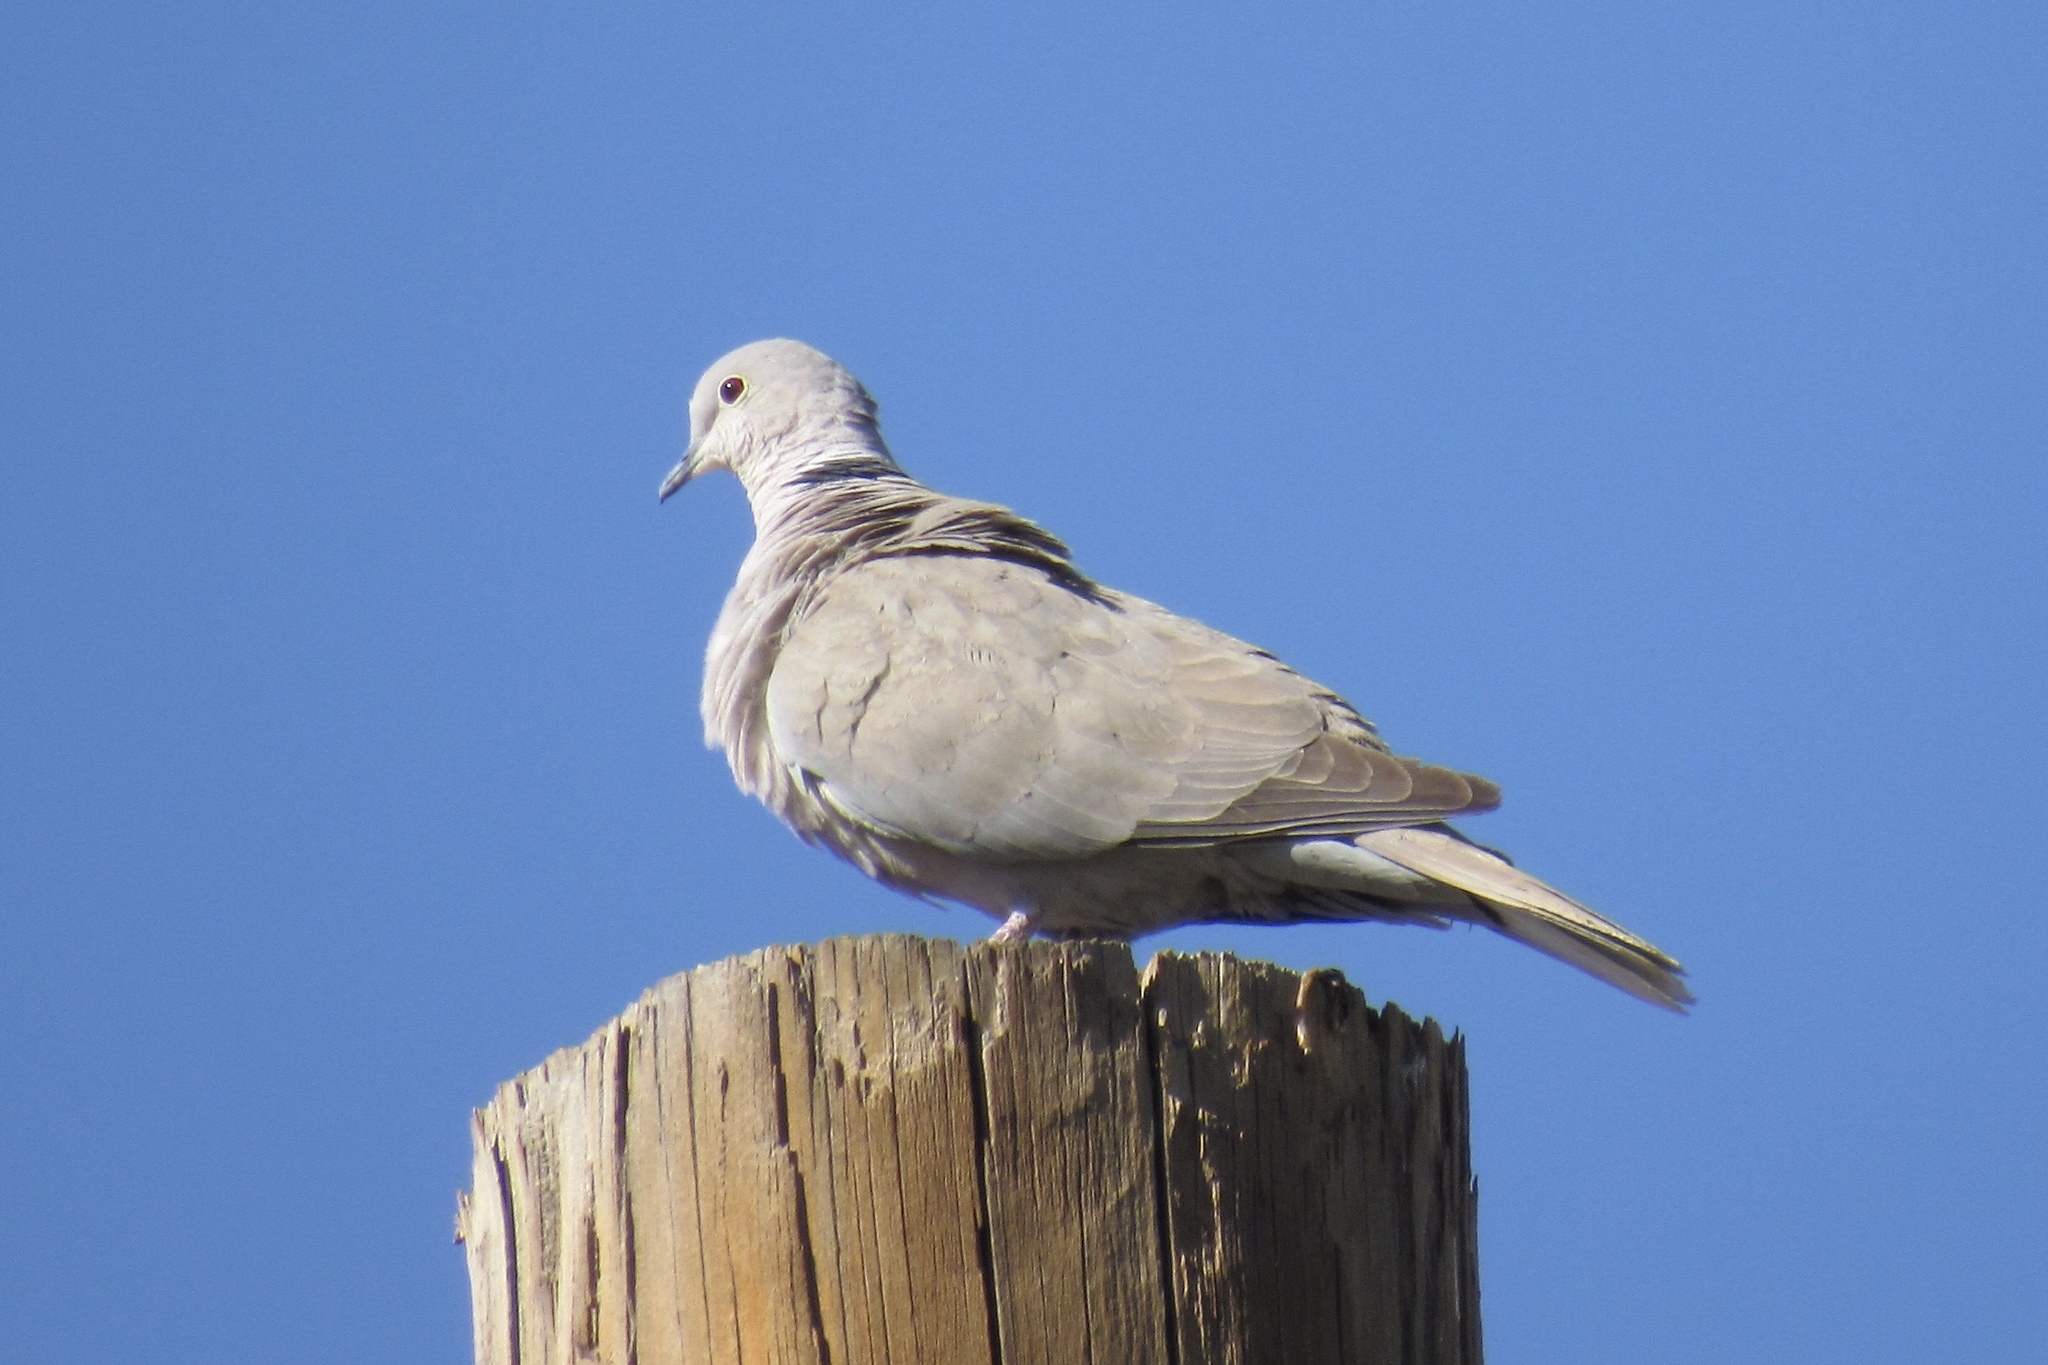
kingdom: Animalia
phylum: Chordata
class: Aves
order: Columbiformes
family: Columbidae
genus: Streptopelia
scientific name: Streptopelia decaocto
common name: Eurasian collared dove
